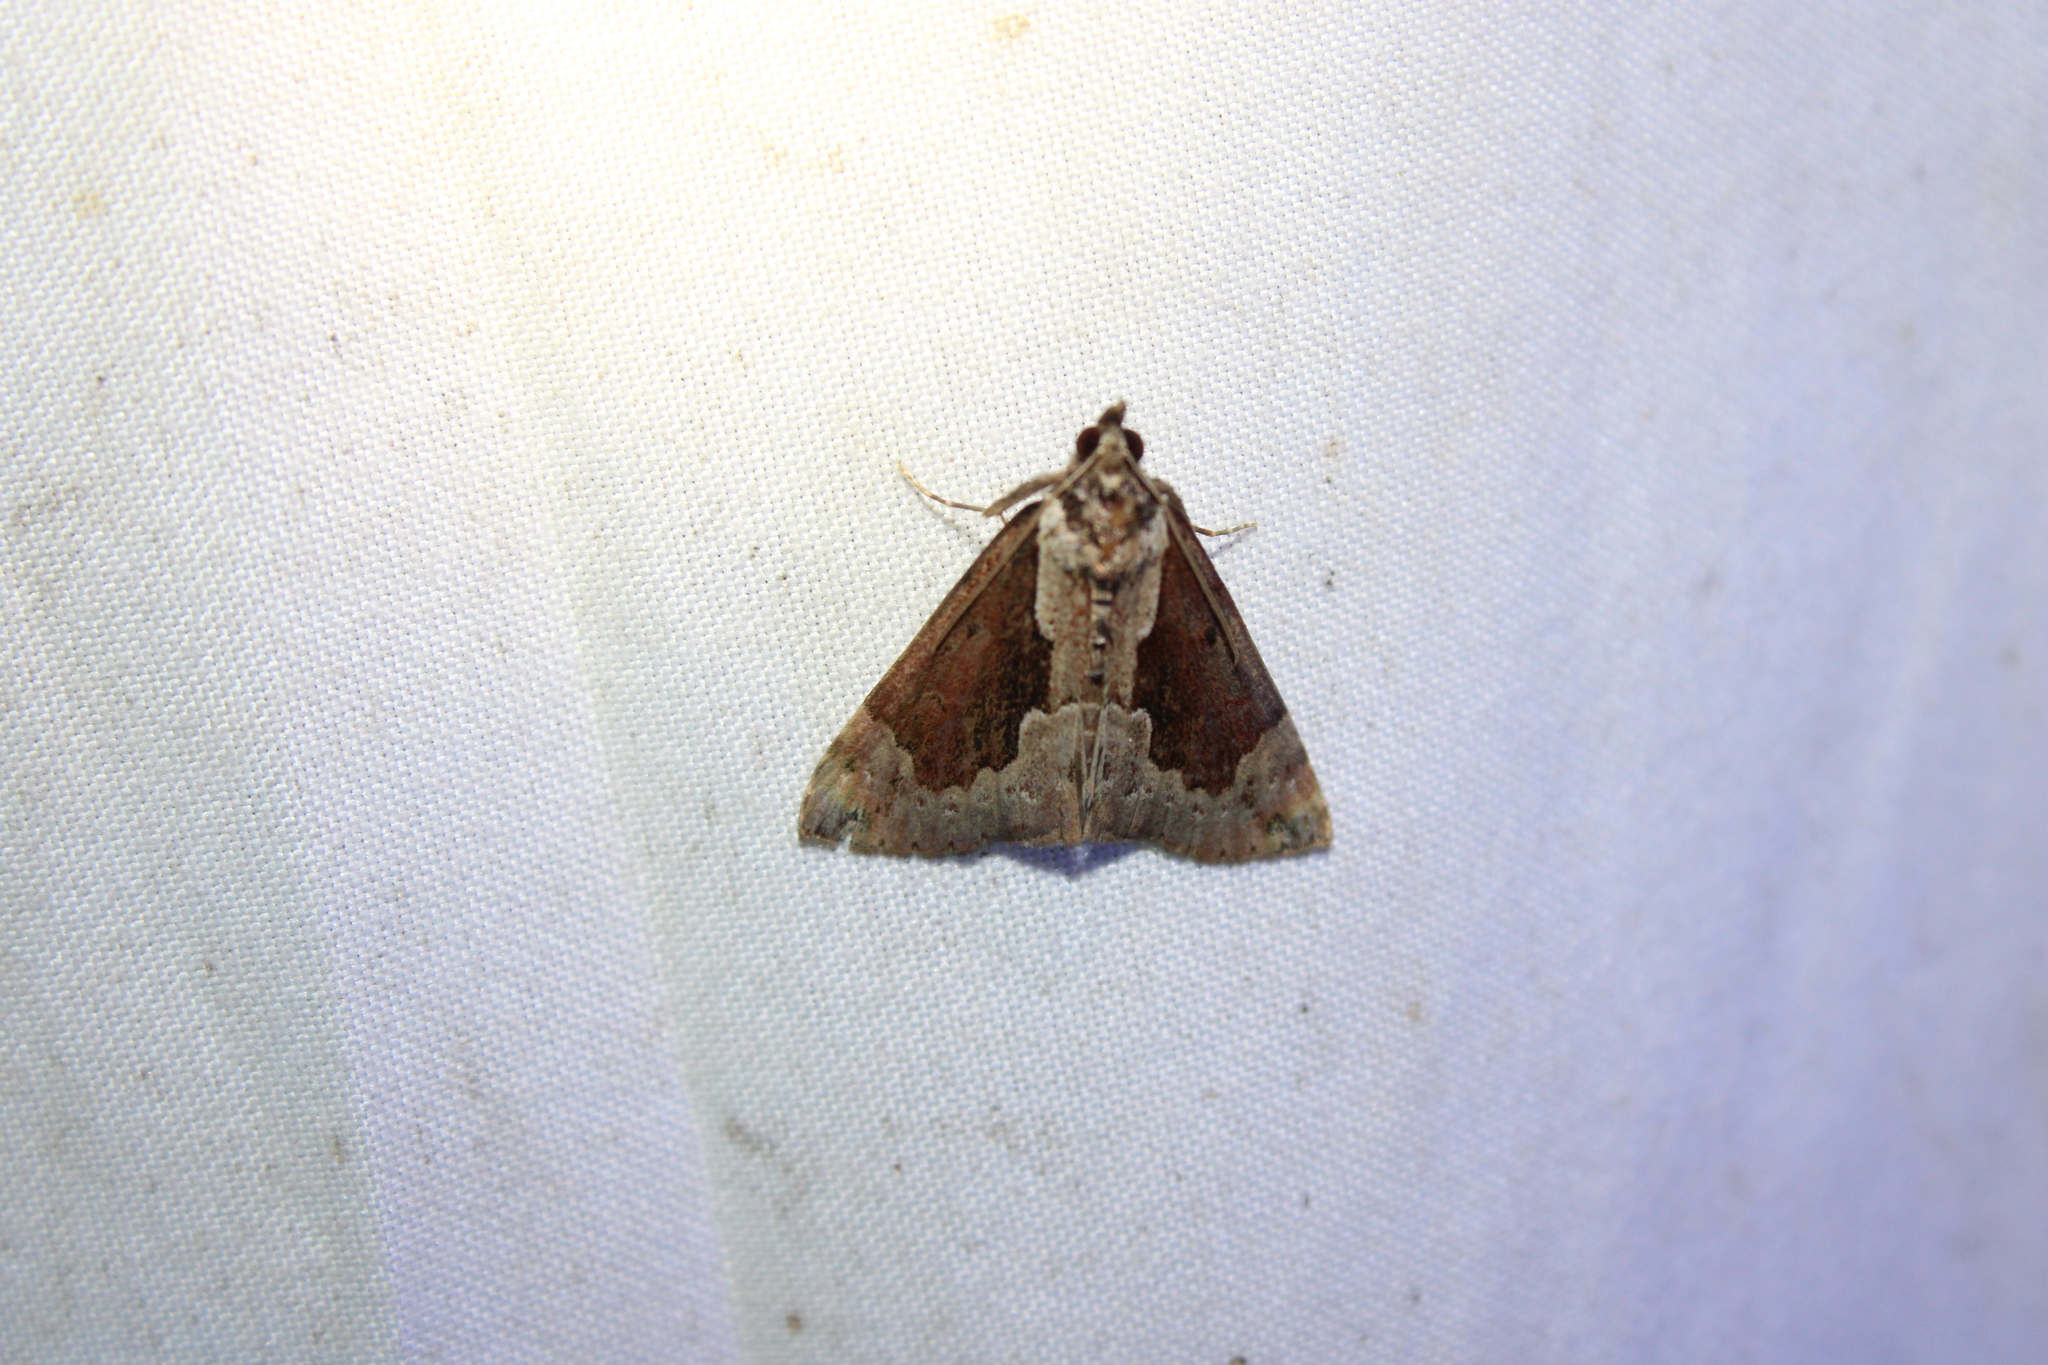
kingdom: Animalia
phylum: Arthropoda
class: Insecta
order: Lepidoptera
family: Erebidae
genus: Hypena
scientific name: Hypena baltimoralis
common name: Baltimore snout
